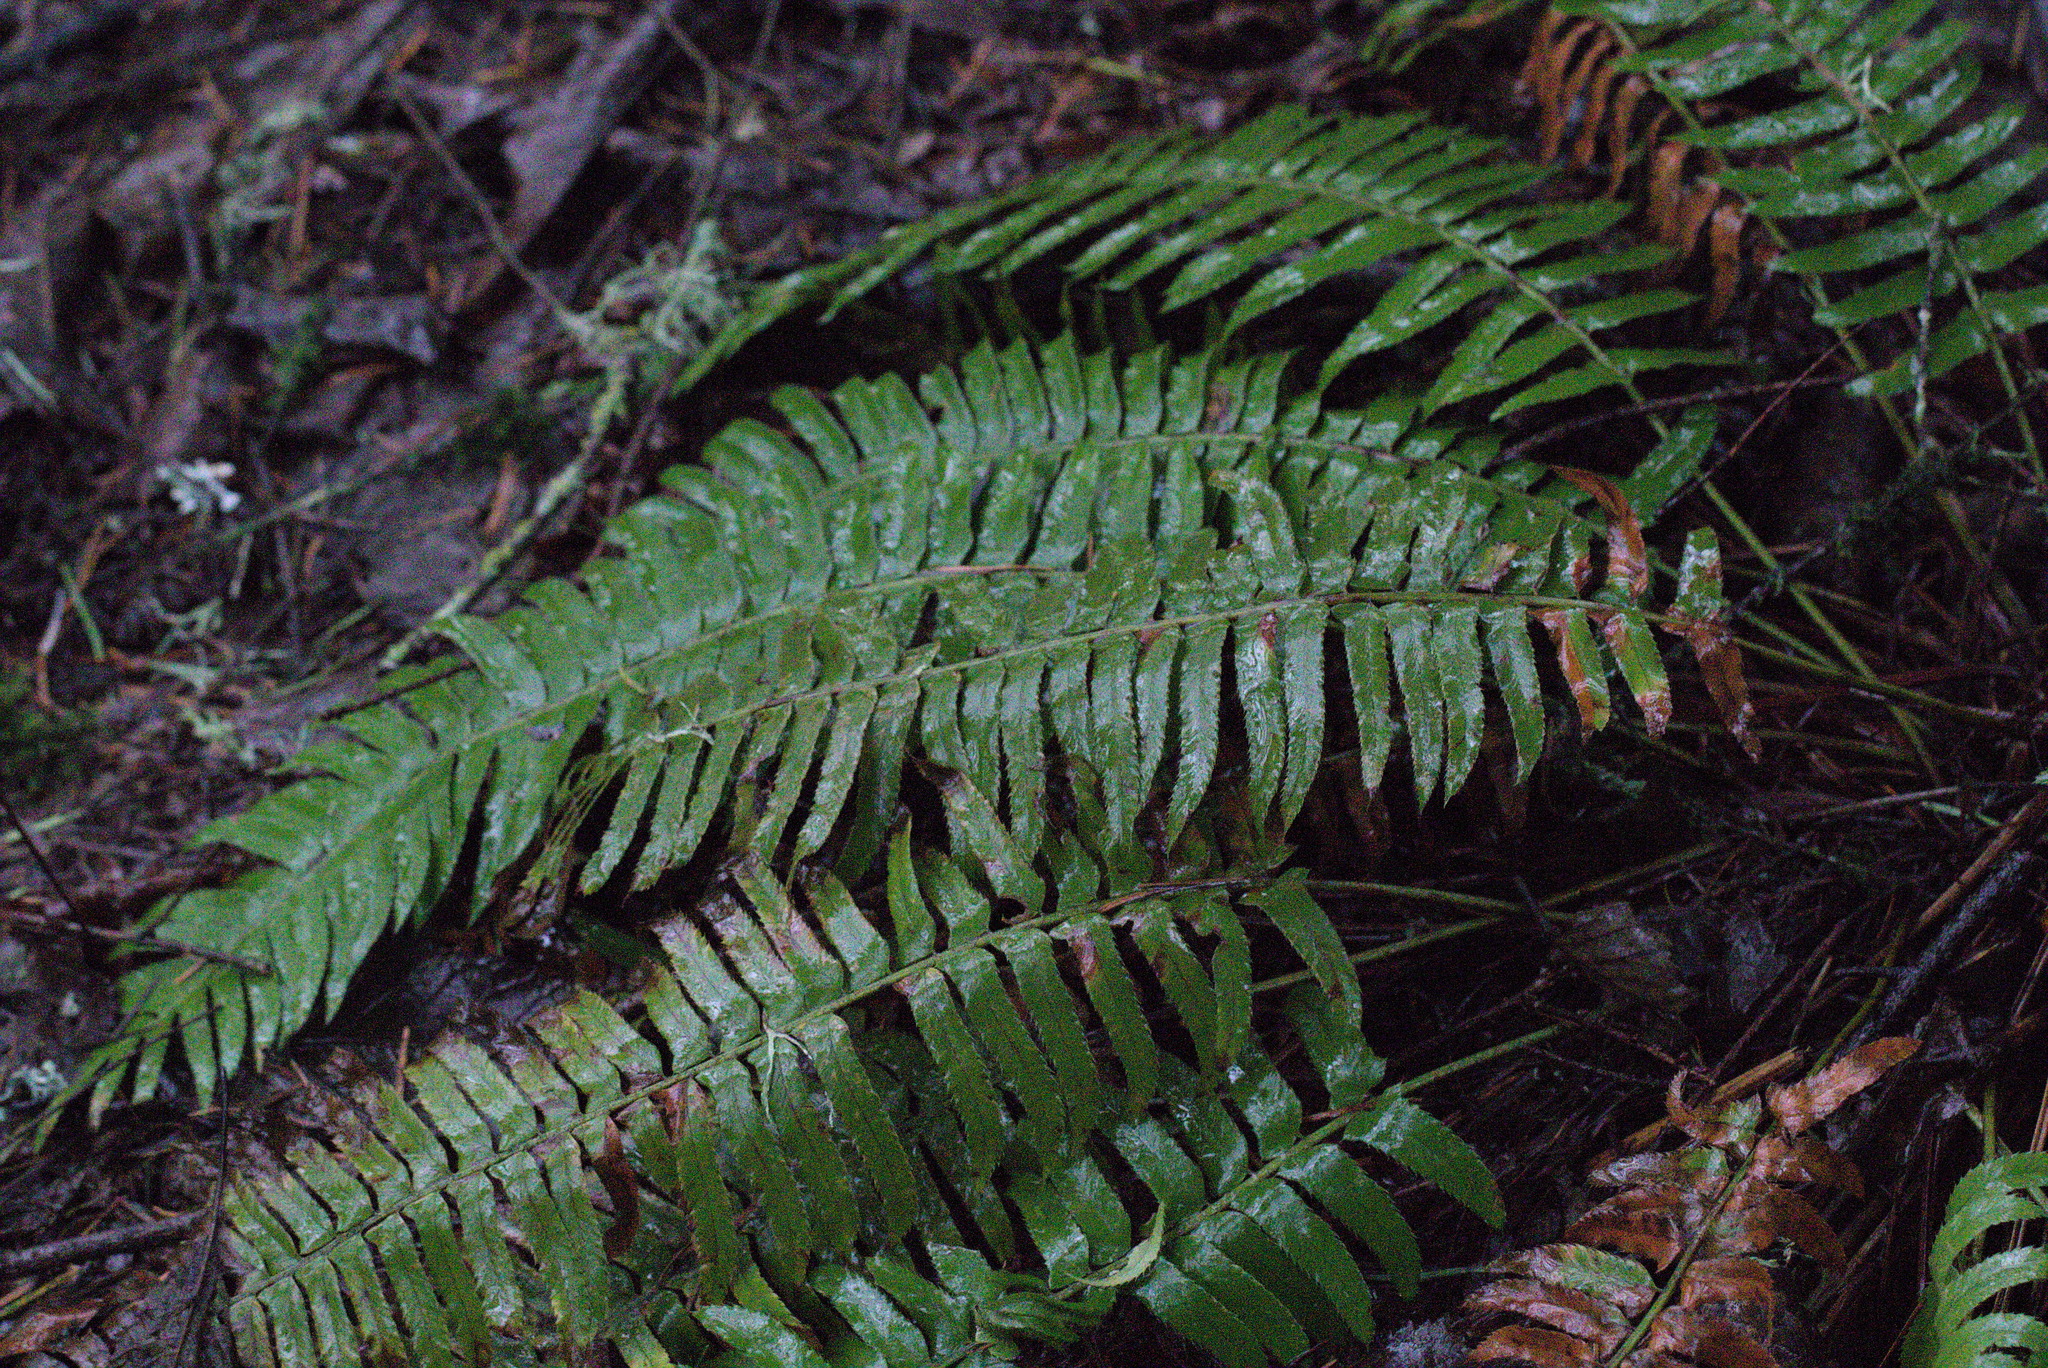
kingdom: Plantae
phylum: Tracheophyta
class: Polypodiopsida
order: Polypodiales
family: Dryopteridaceae
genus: Polystichum
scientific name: Polystichum munitum
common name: Western sword-fern
